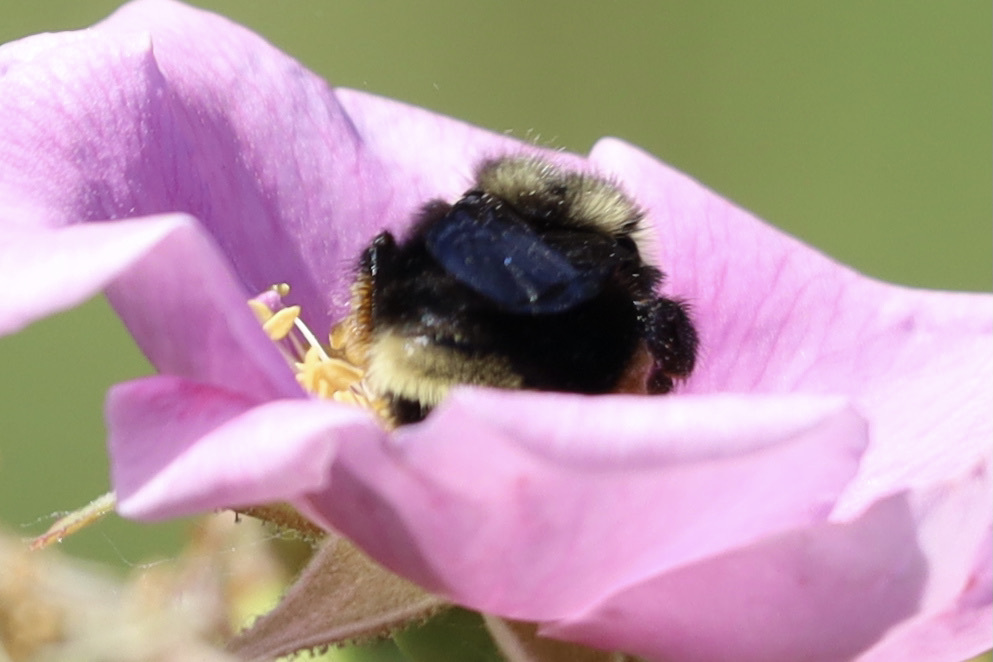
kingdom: Animalia
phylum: Arthropoda
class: Insecta
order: Hymenoptera
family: Apidae
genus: Bombus
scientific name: Bombus californicus
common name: California bumble bee
